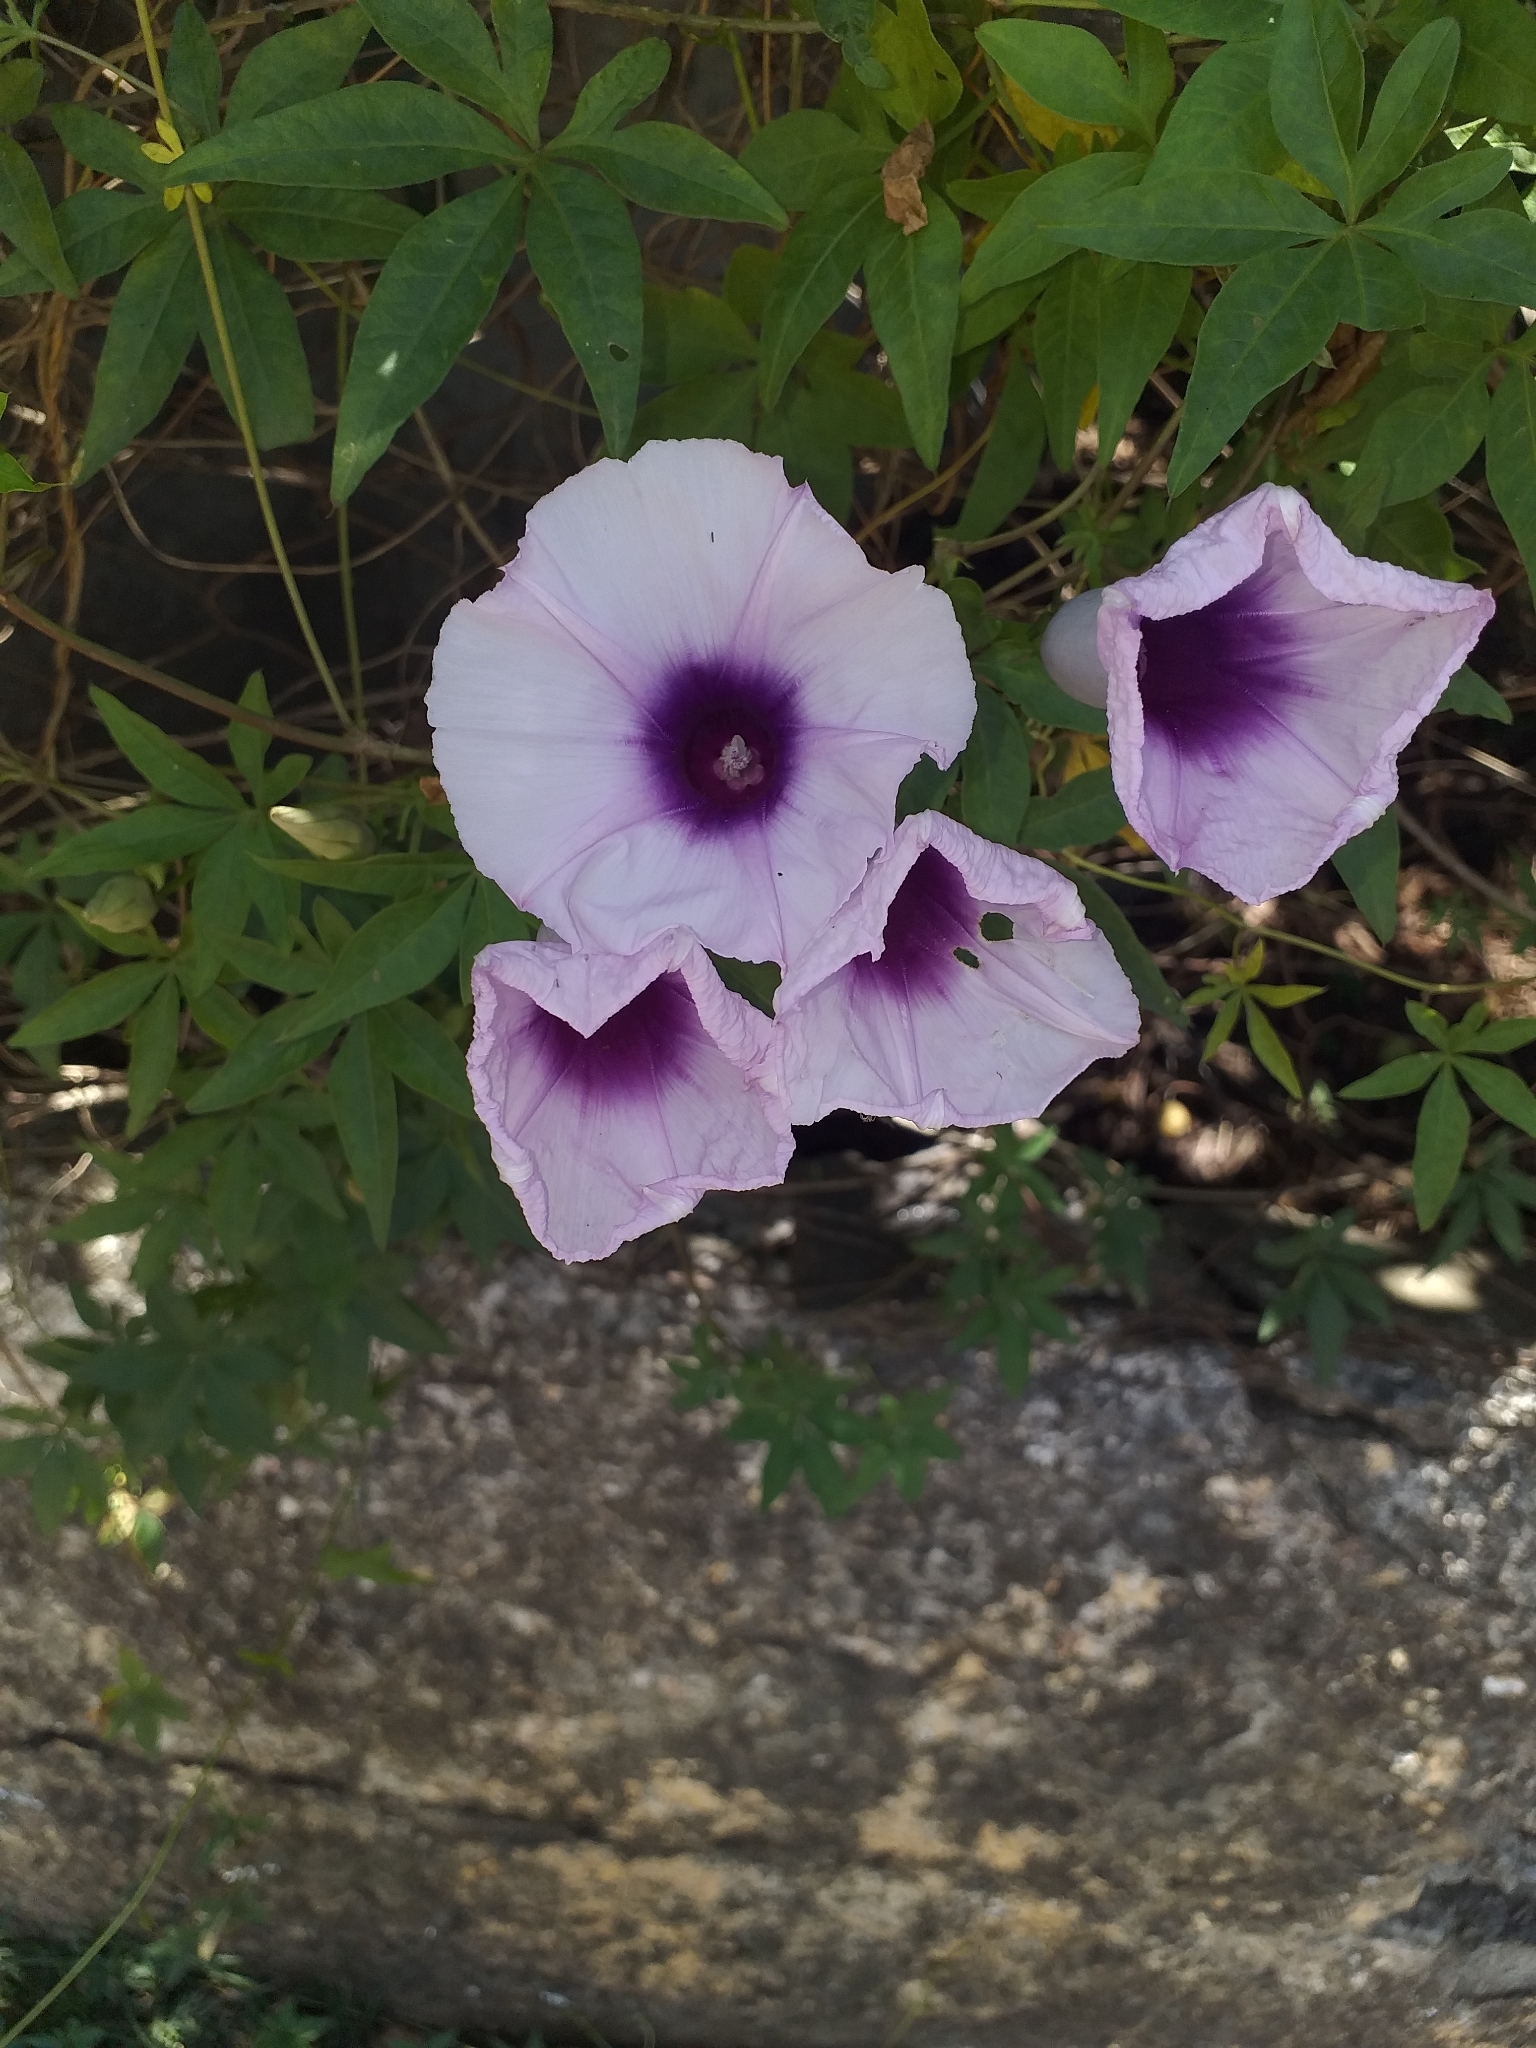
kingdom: Plantae
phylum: Tracheophyta
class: Magnoliopsida
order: Solanales
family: Convolvulaceae
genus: Ipomoea
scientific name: Ipomoea cairica
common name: Mile a minute vine
